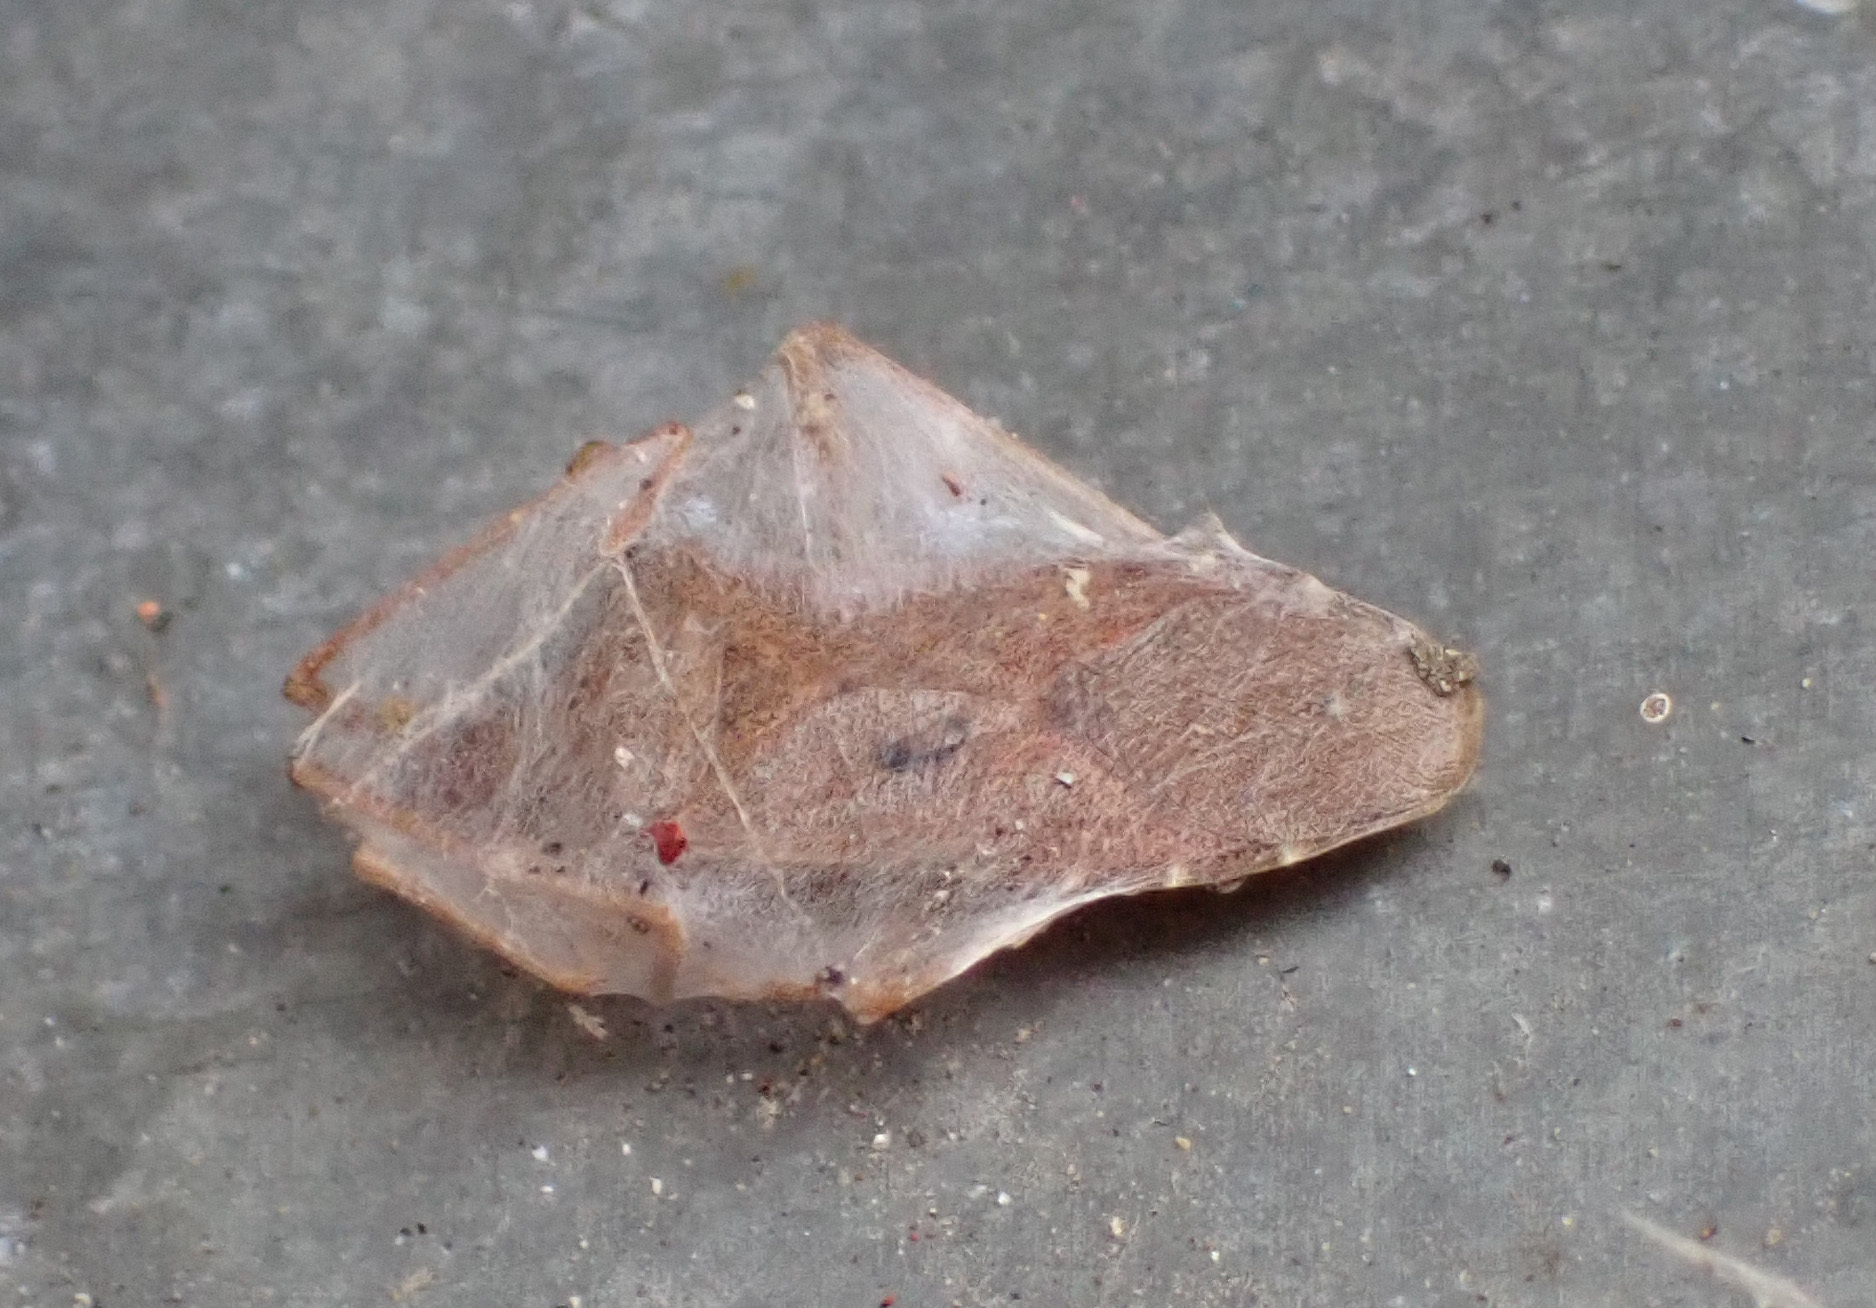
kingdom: Animalia
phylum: Arthropoda
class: Insecta
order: Hemiptera
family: Coreidae
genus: Coreus
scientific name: Coreus marginatus
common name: Dock bug
